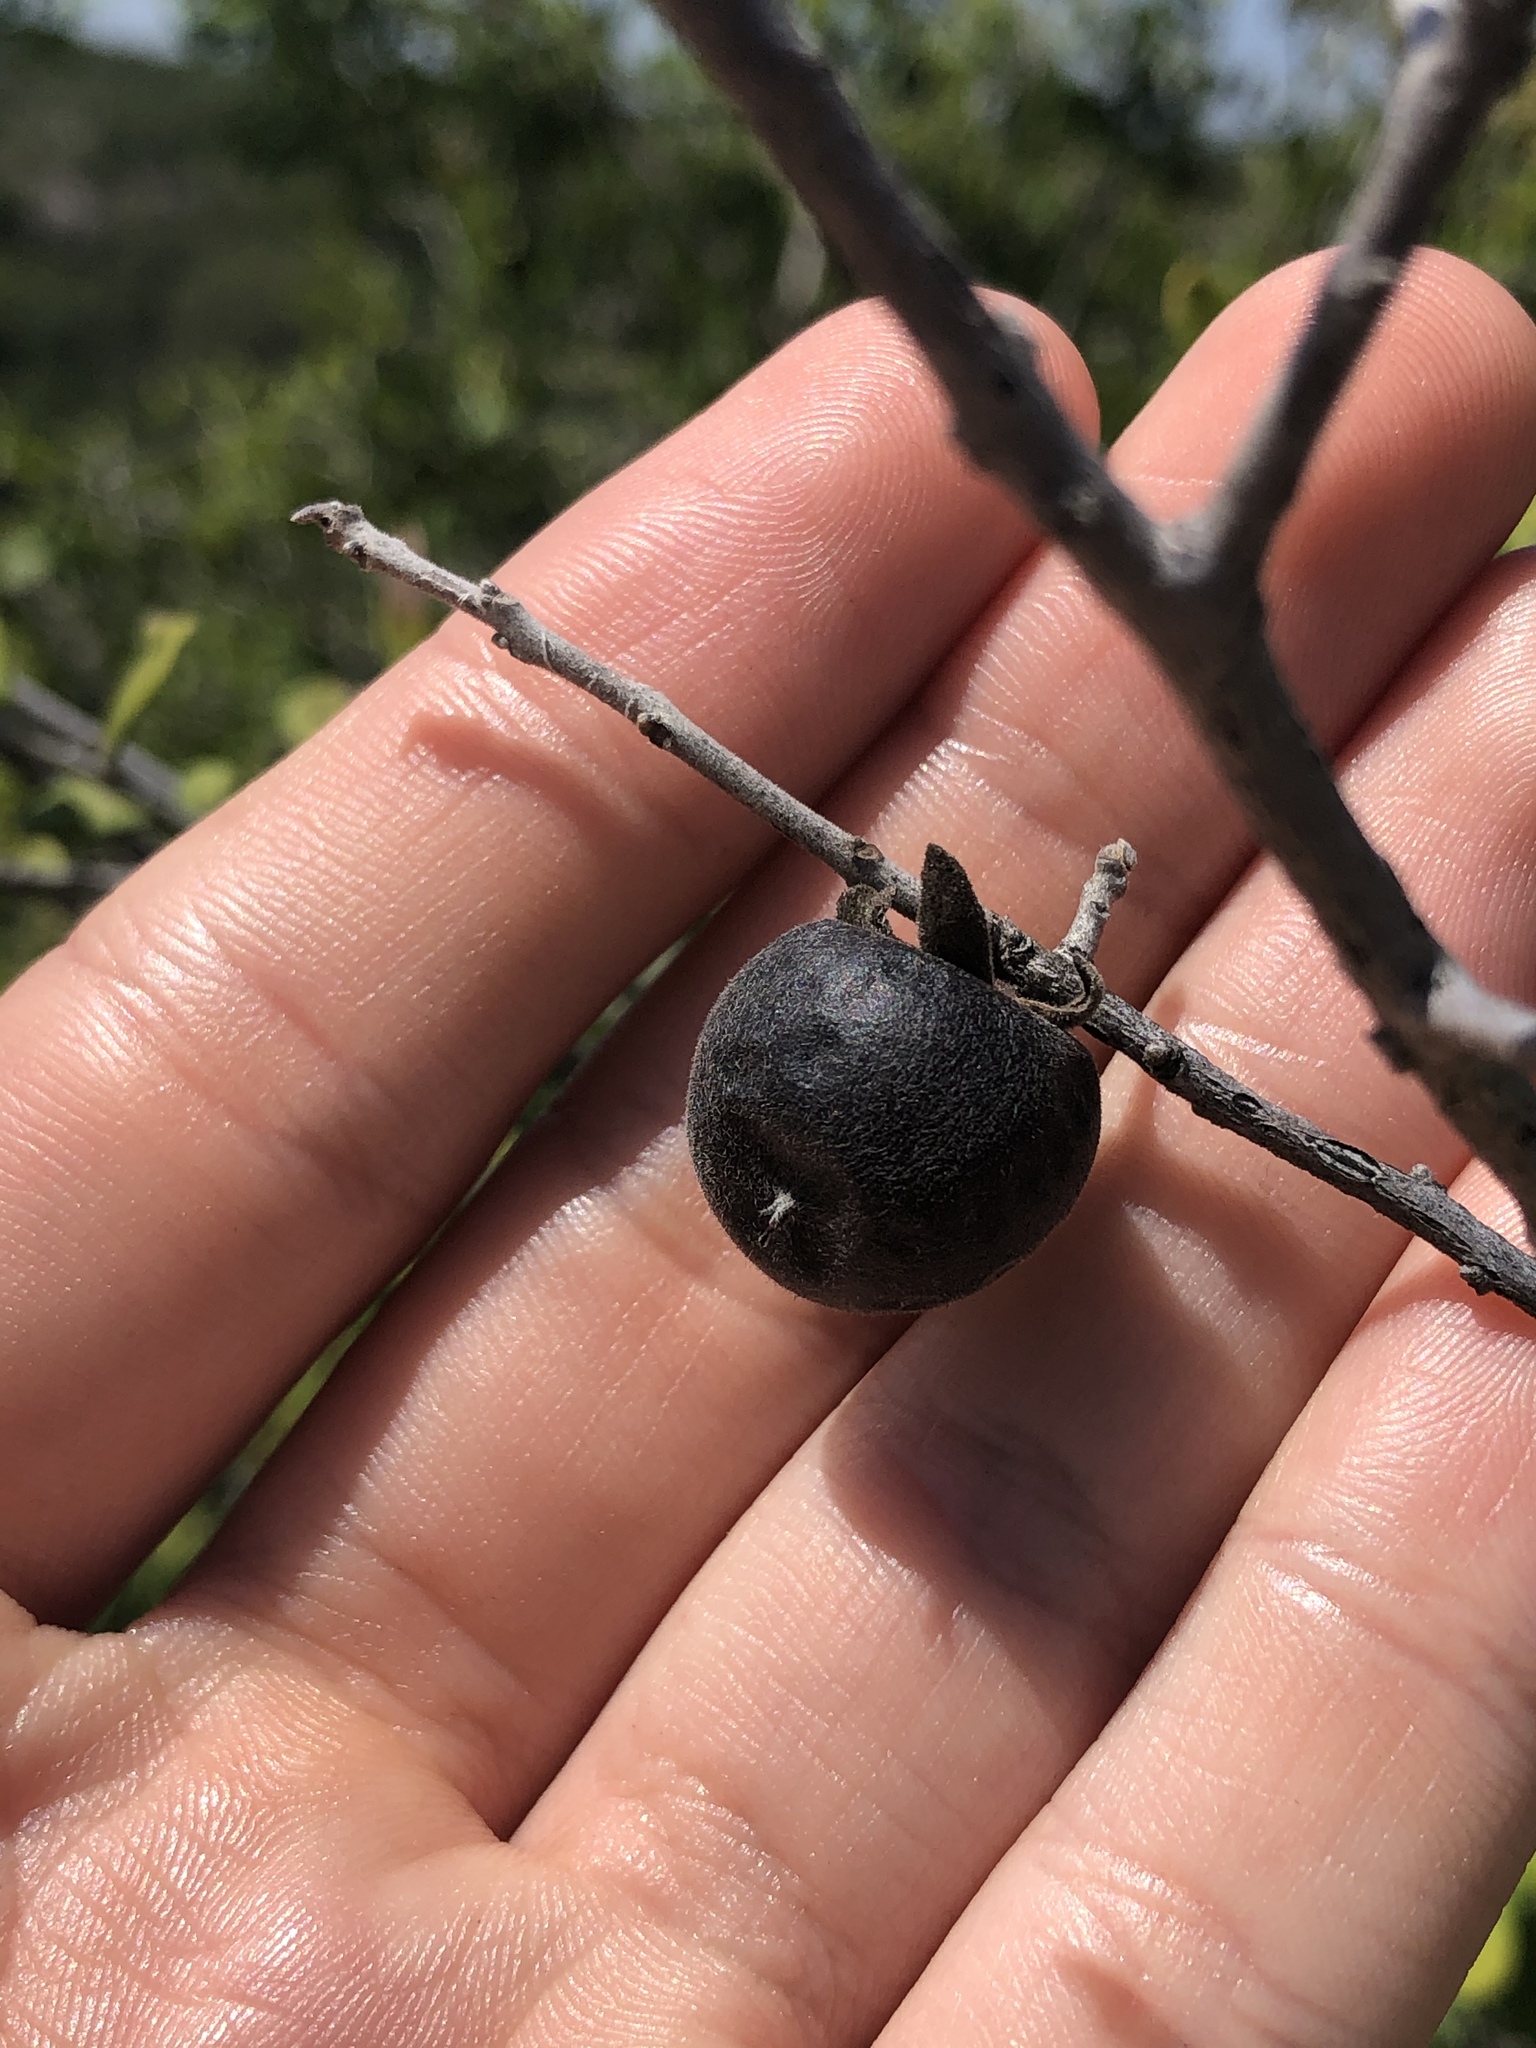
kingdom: Plantae
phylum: Tracheophyta
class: Magnoliopsida
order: Ericales
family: Ebenaceae
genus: Diospyros
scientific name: Diospyros texana
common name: Texas persimmon
